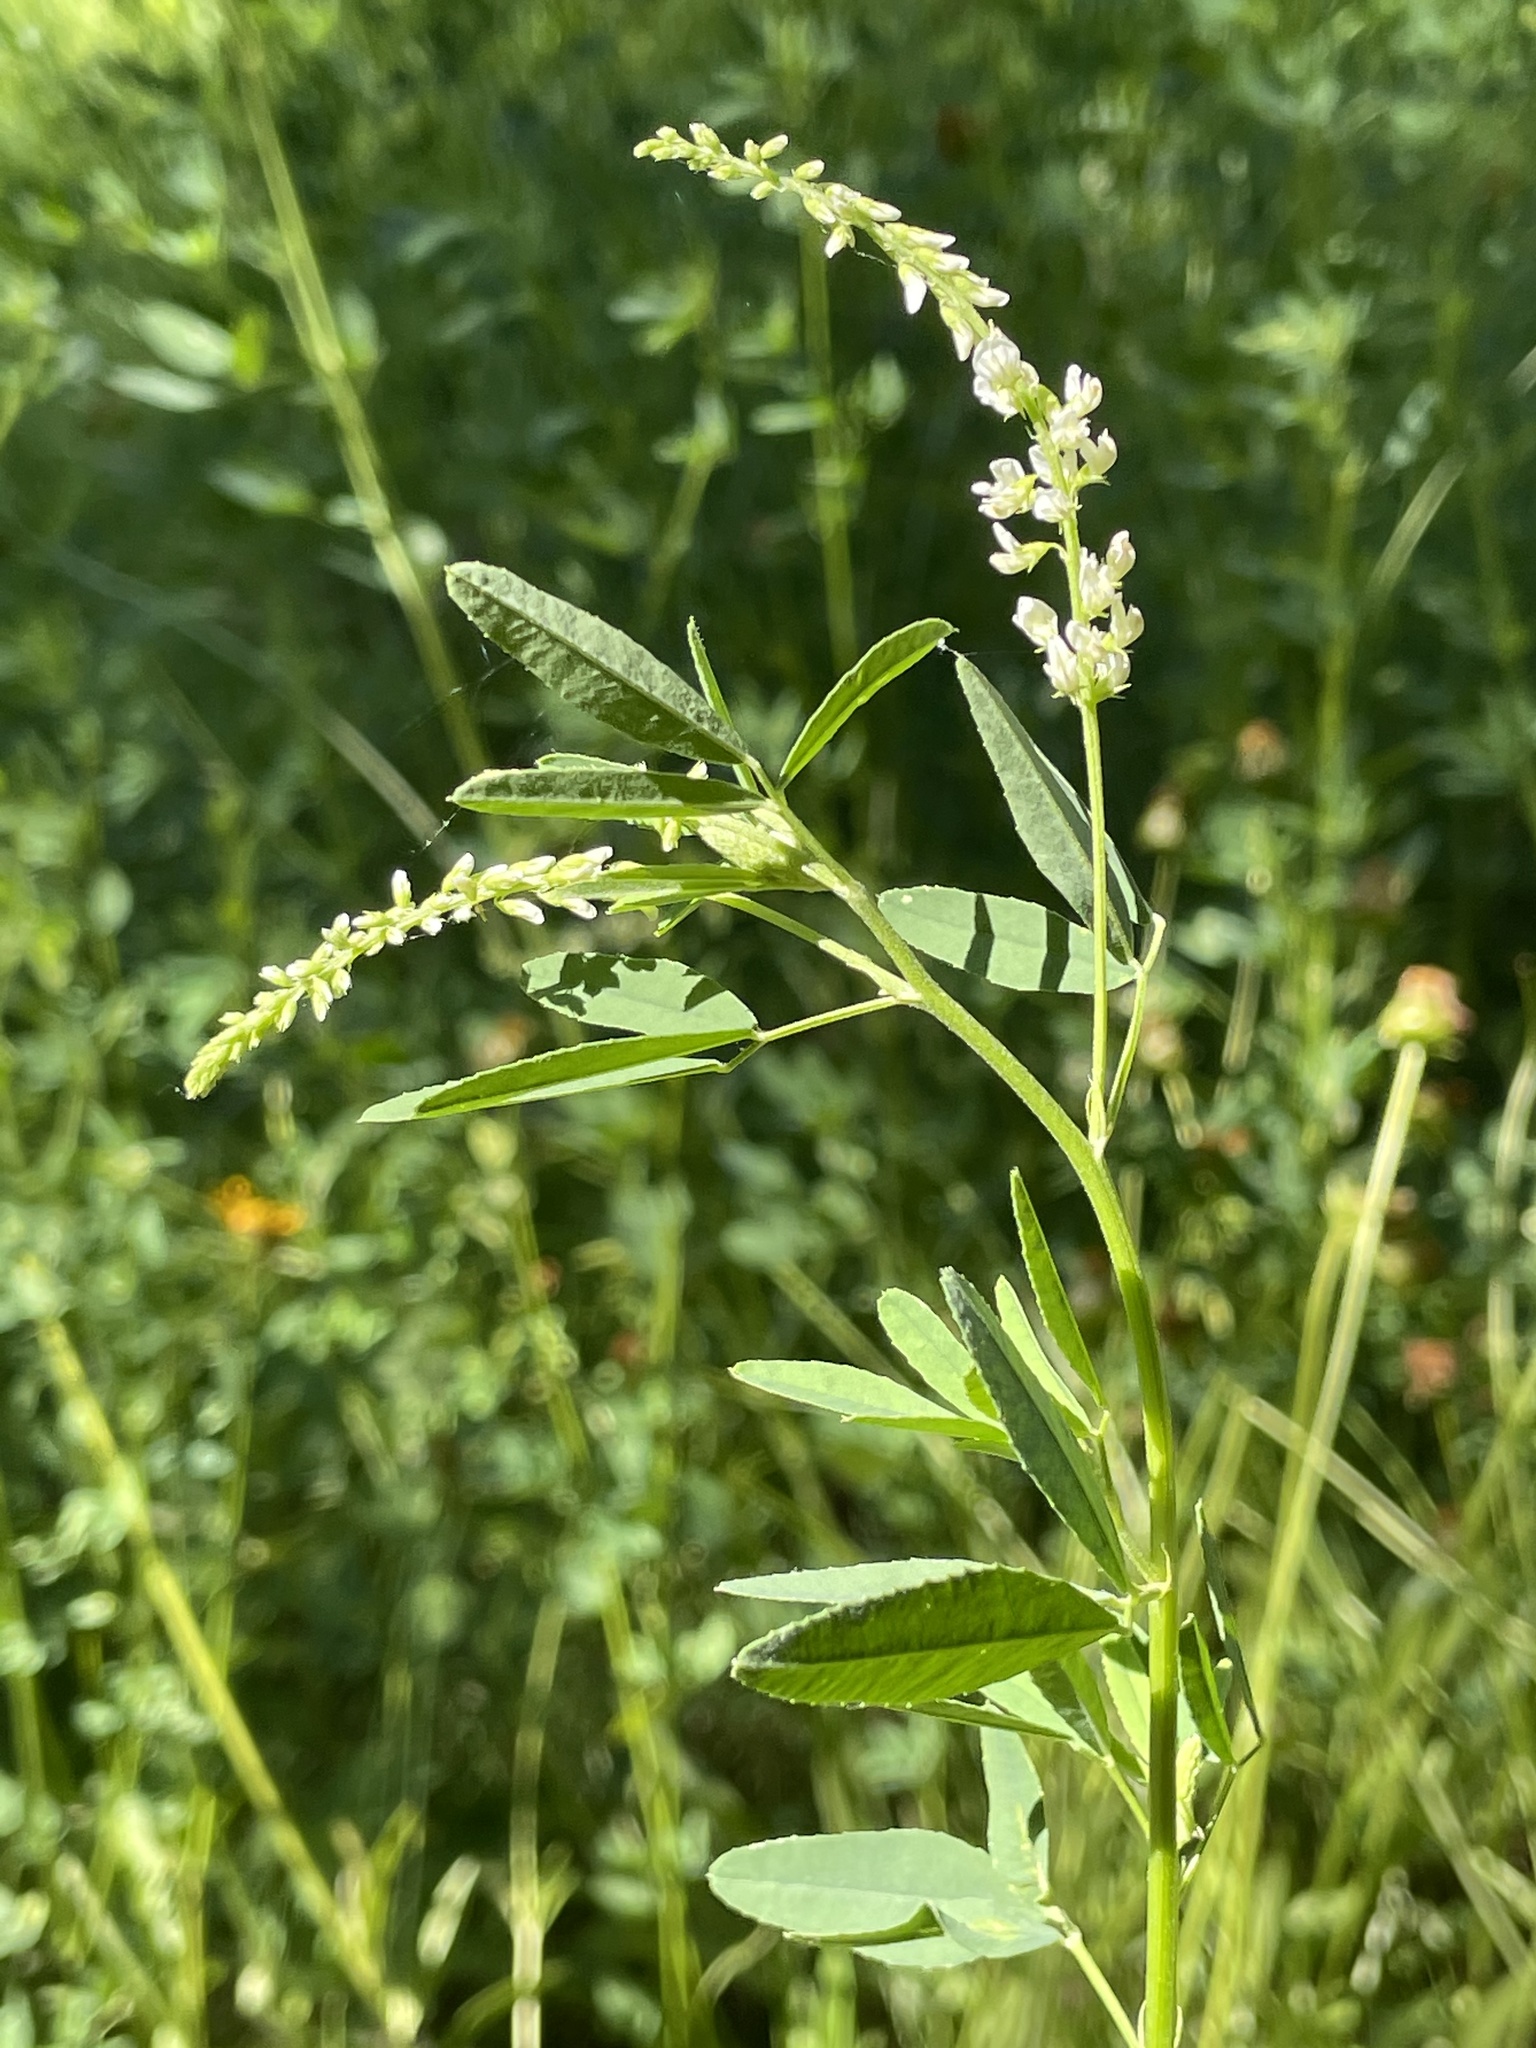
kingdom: Plantae
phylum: Tracheophyta
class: Magnoliopsida
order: Fabales
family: Fabaceae
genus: Melilotus
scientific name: Melilotus albus
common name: White melilot
